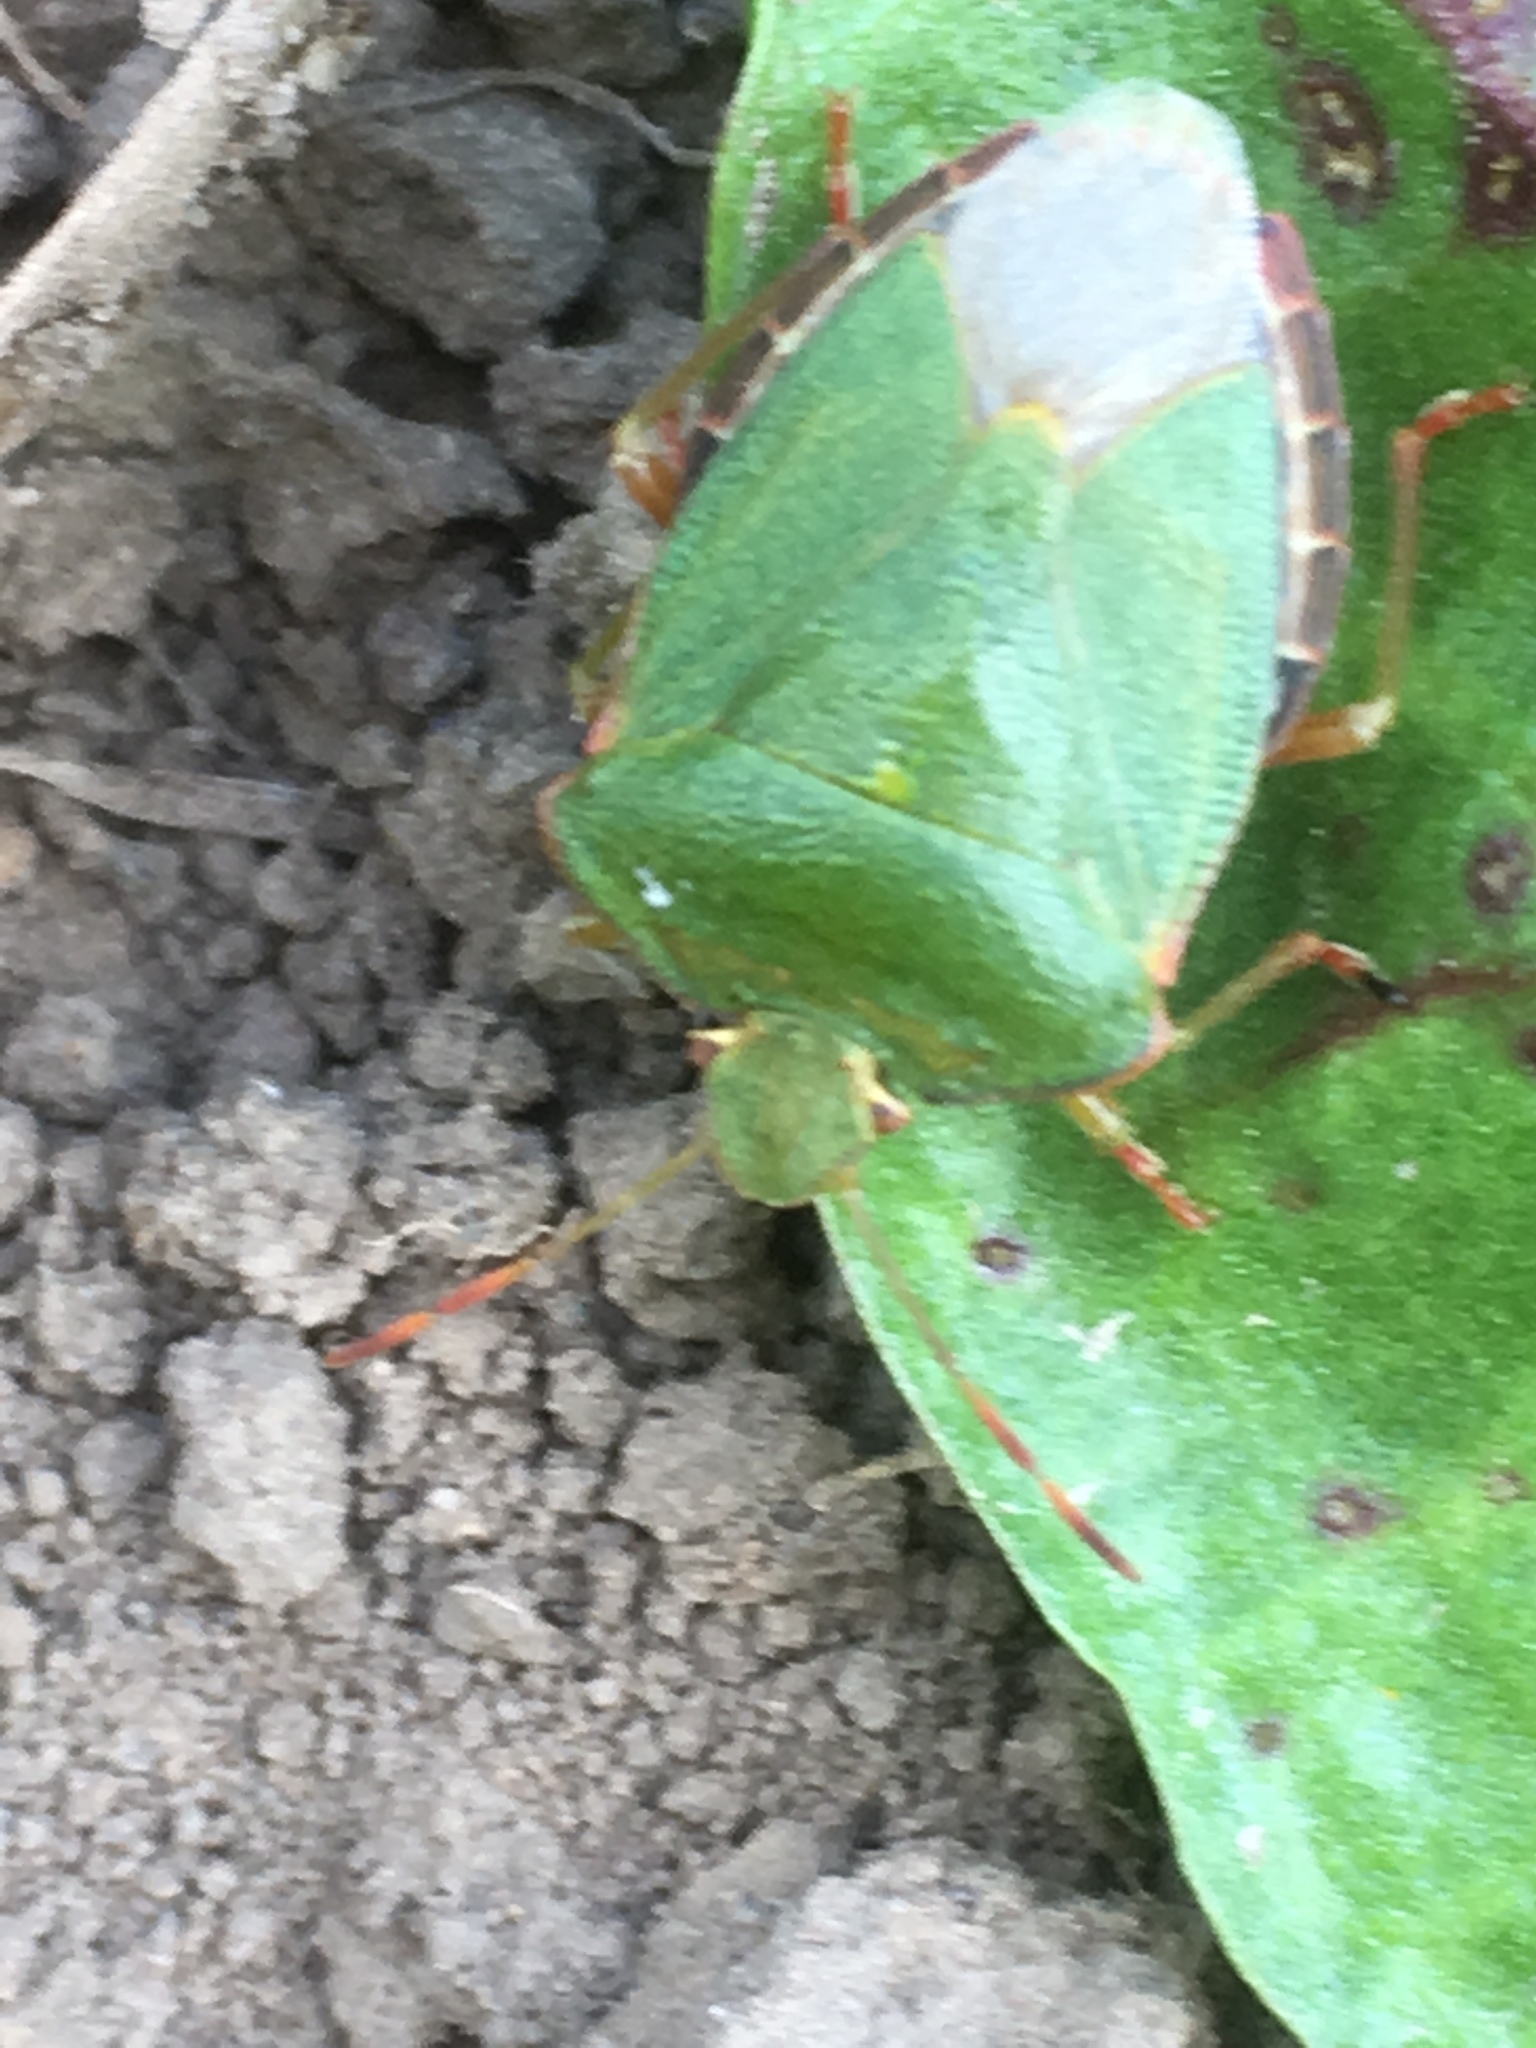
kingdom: Animalia
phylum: Arthropoda
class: Insecta
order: Hemiptera
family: Pentatomidae
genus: Palomena
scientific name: Palomena prasina
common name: Green shieldbug
